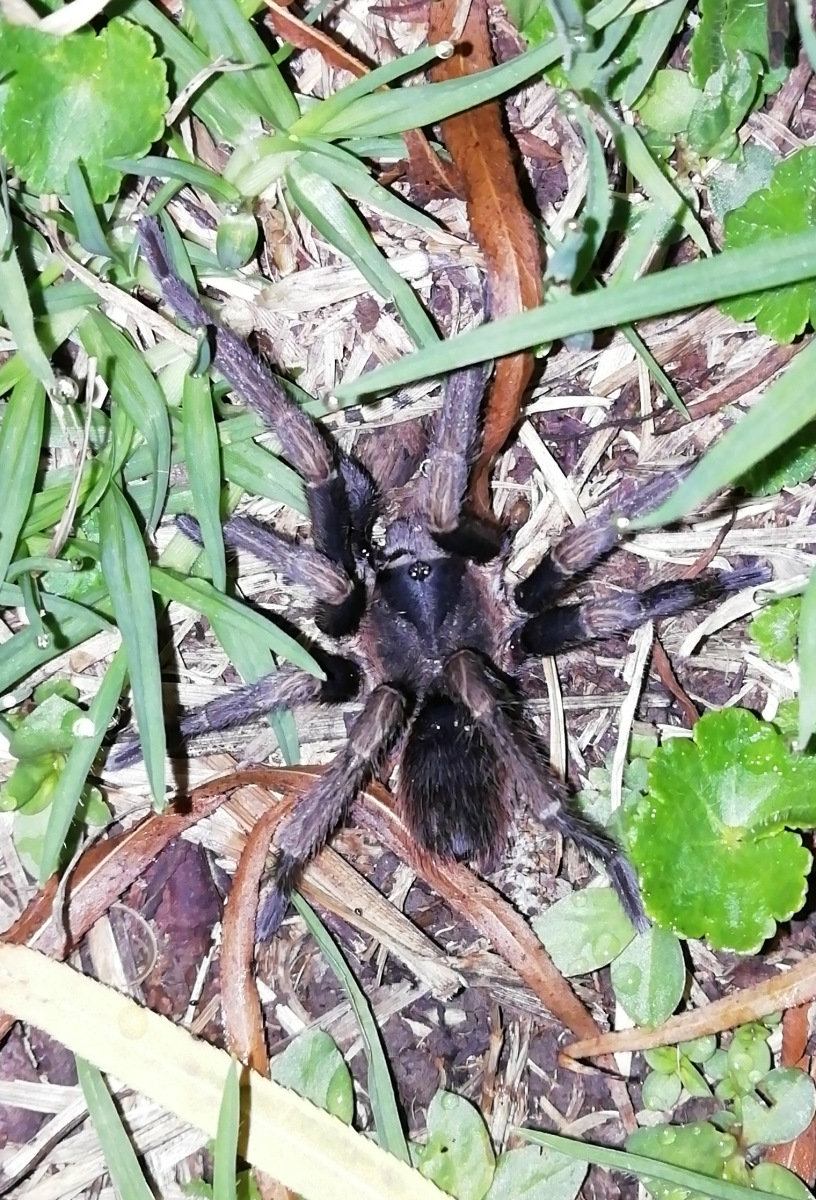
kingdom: Animalia
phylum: Arthropoda
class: Arachnida
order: Araneae
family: Theraphosidae
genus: Cyclosternum
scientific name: Cyclosternum schmardae
